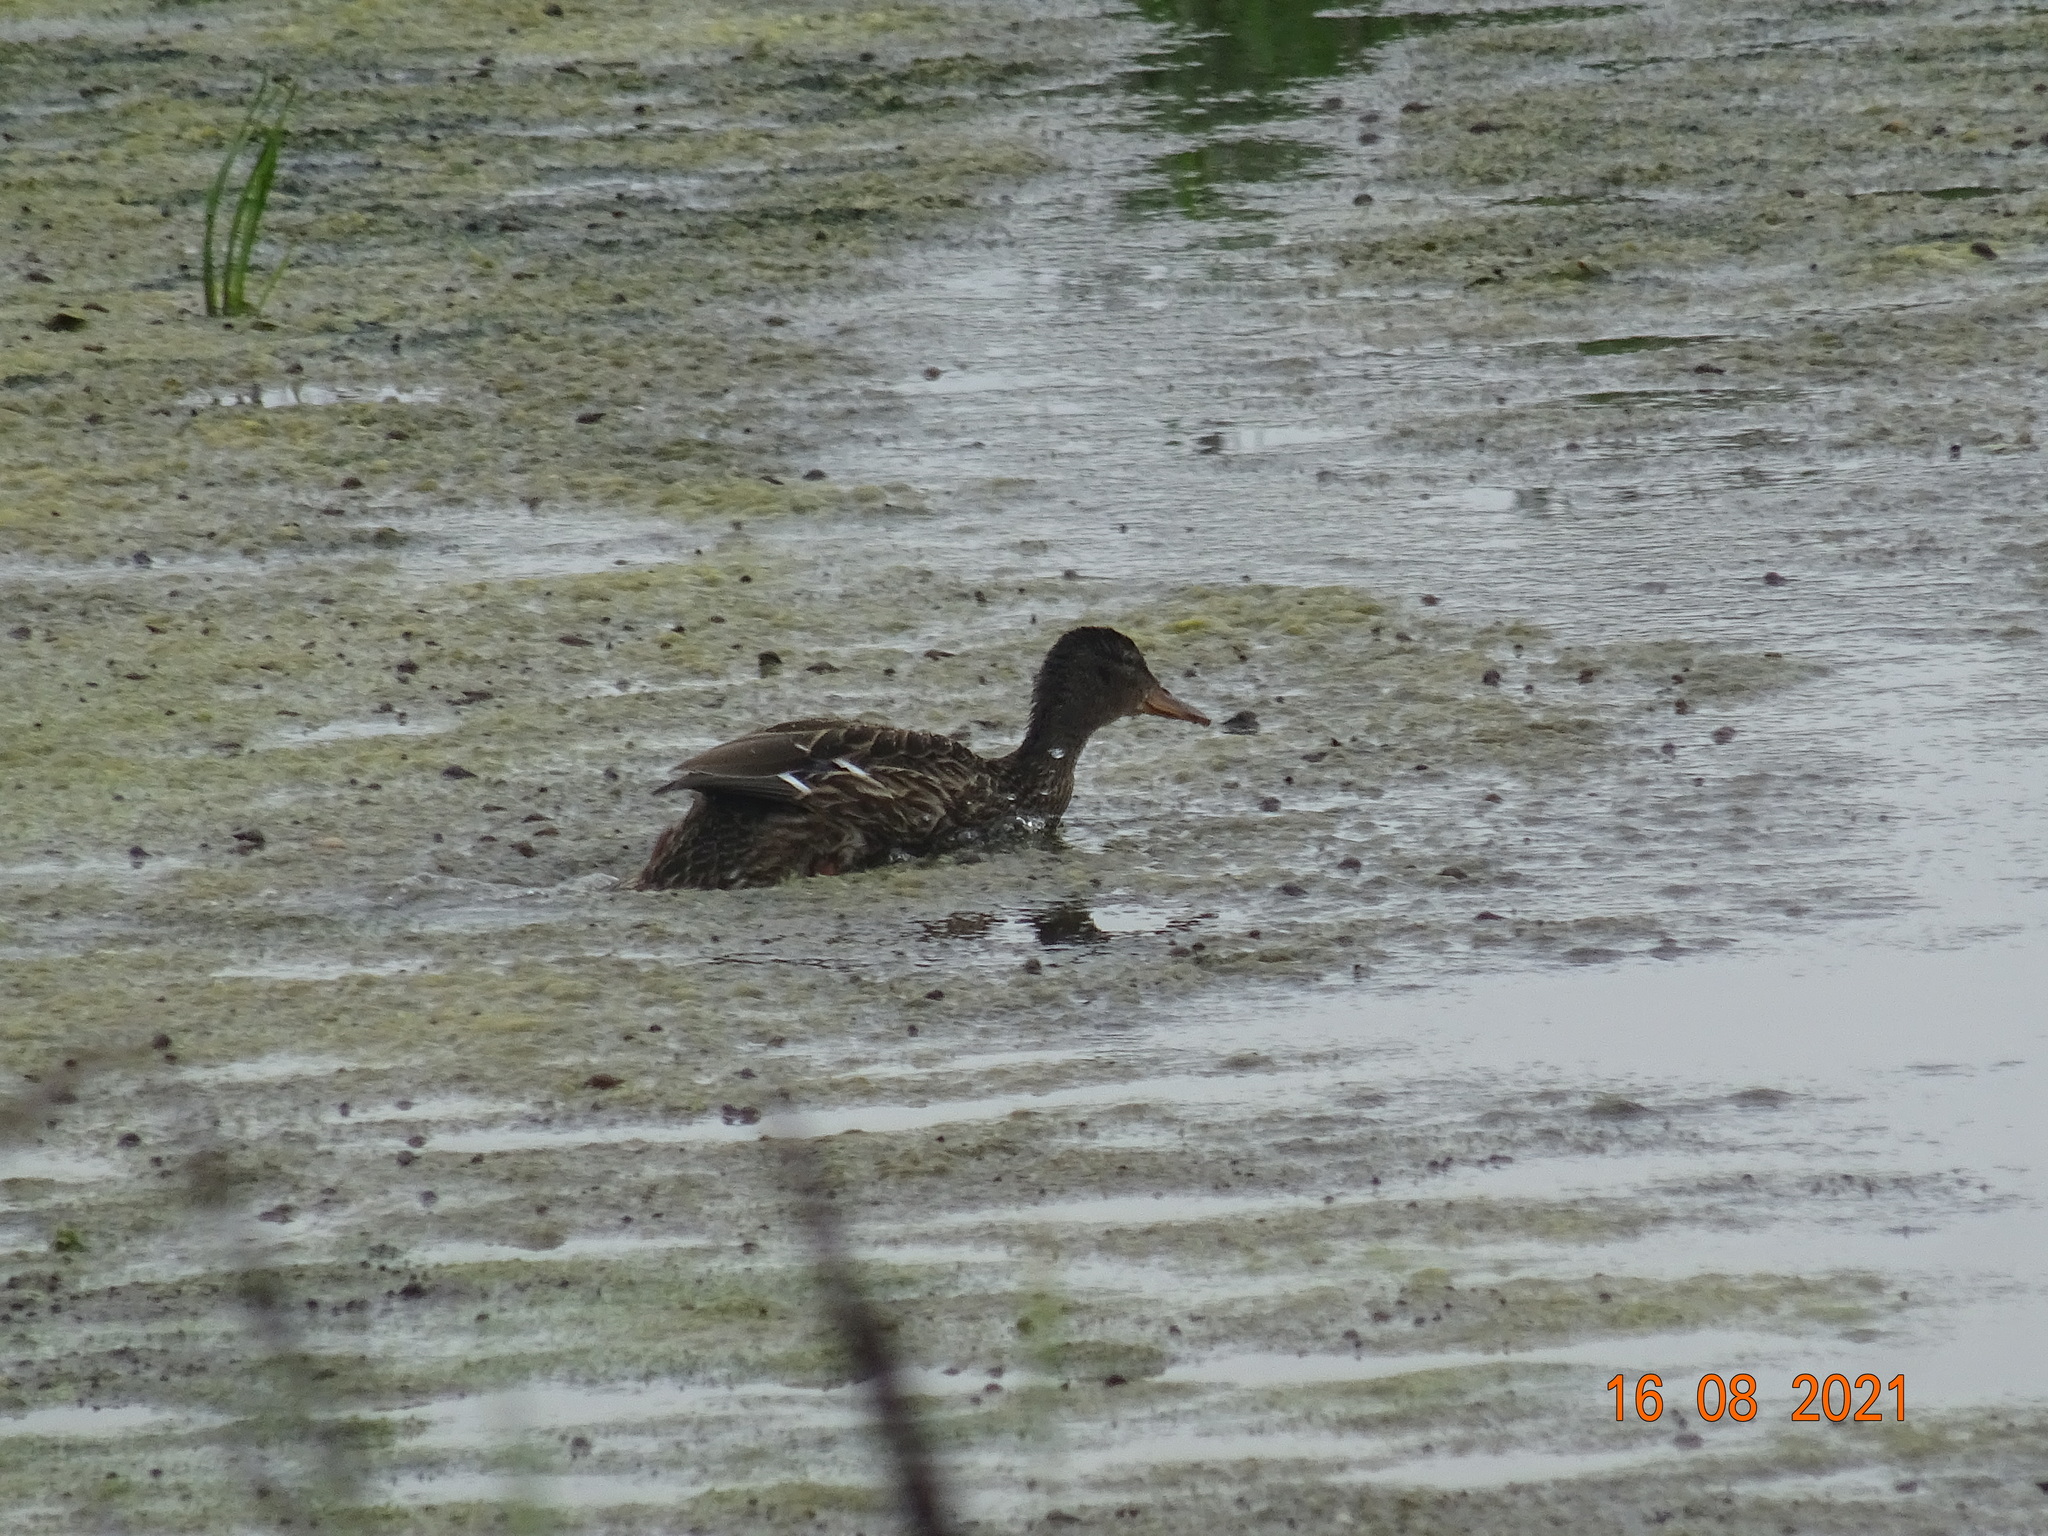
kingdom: Animalia
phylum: Chordata
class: Aves
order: Anseriformes
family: Anatidae
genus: Anas
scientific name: Anas platyrhynchos
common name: Mallard
